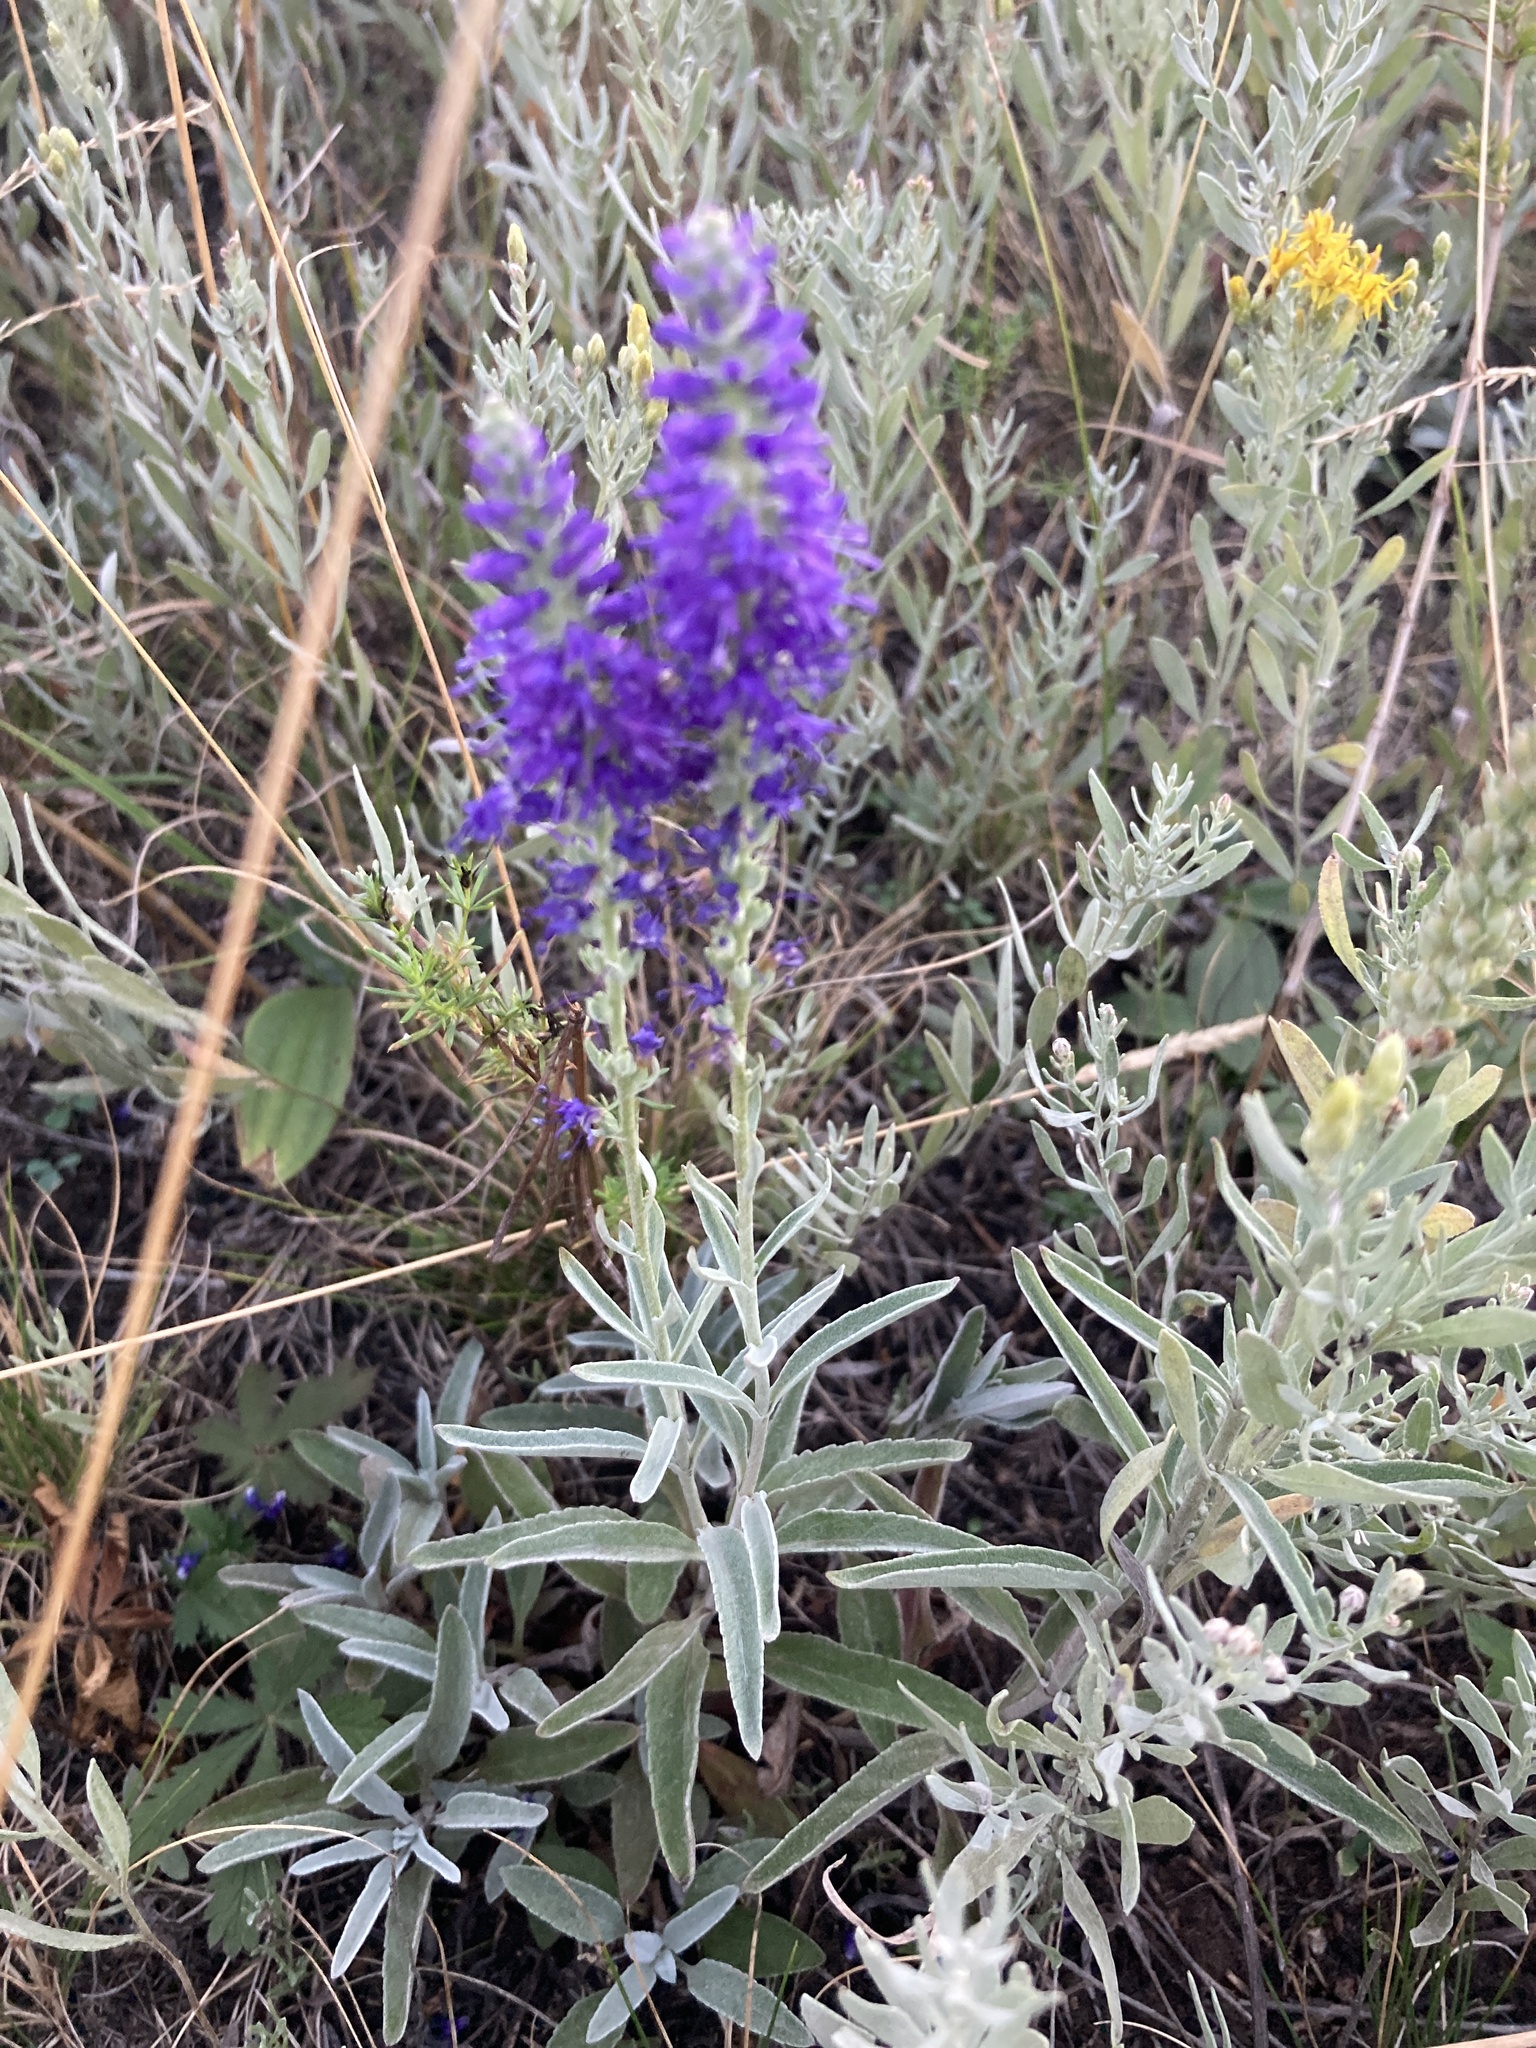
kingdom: Plantae
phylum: Tracheophyta
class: Magnoliopsida
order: Lamiales
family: Plantaginaceae
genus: Veronica
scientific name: Veronica incana
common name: Silver speedwell
